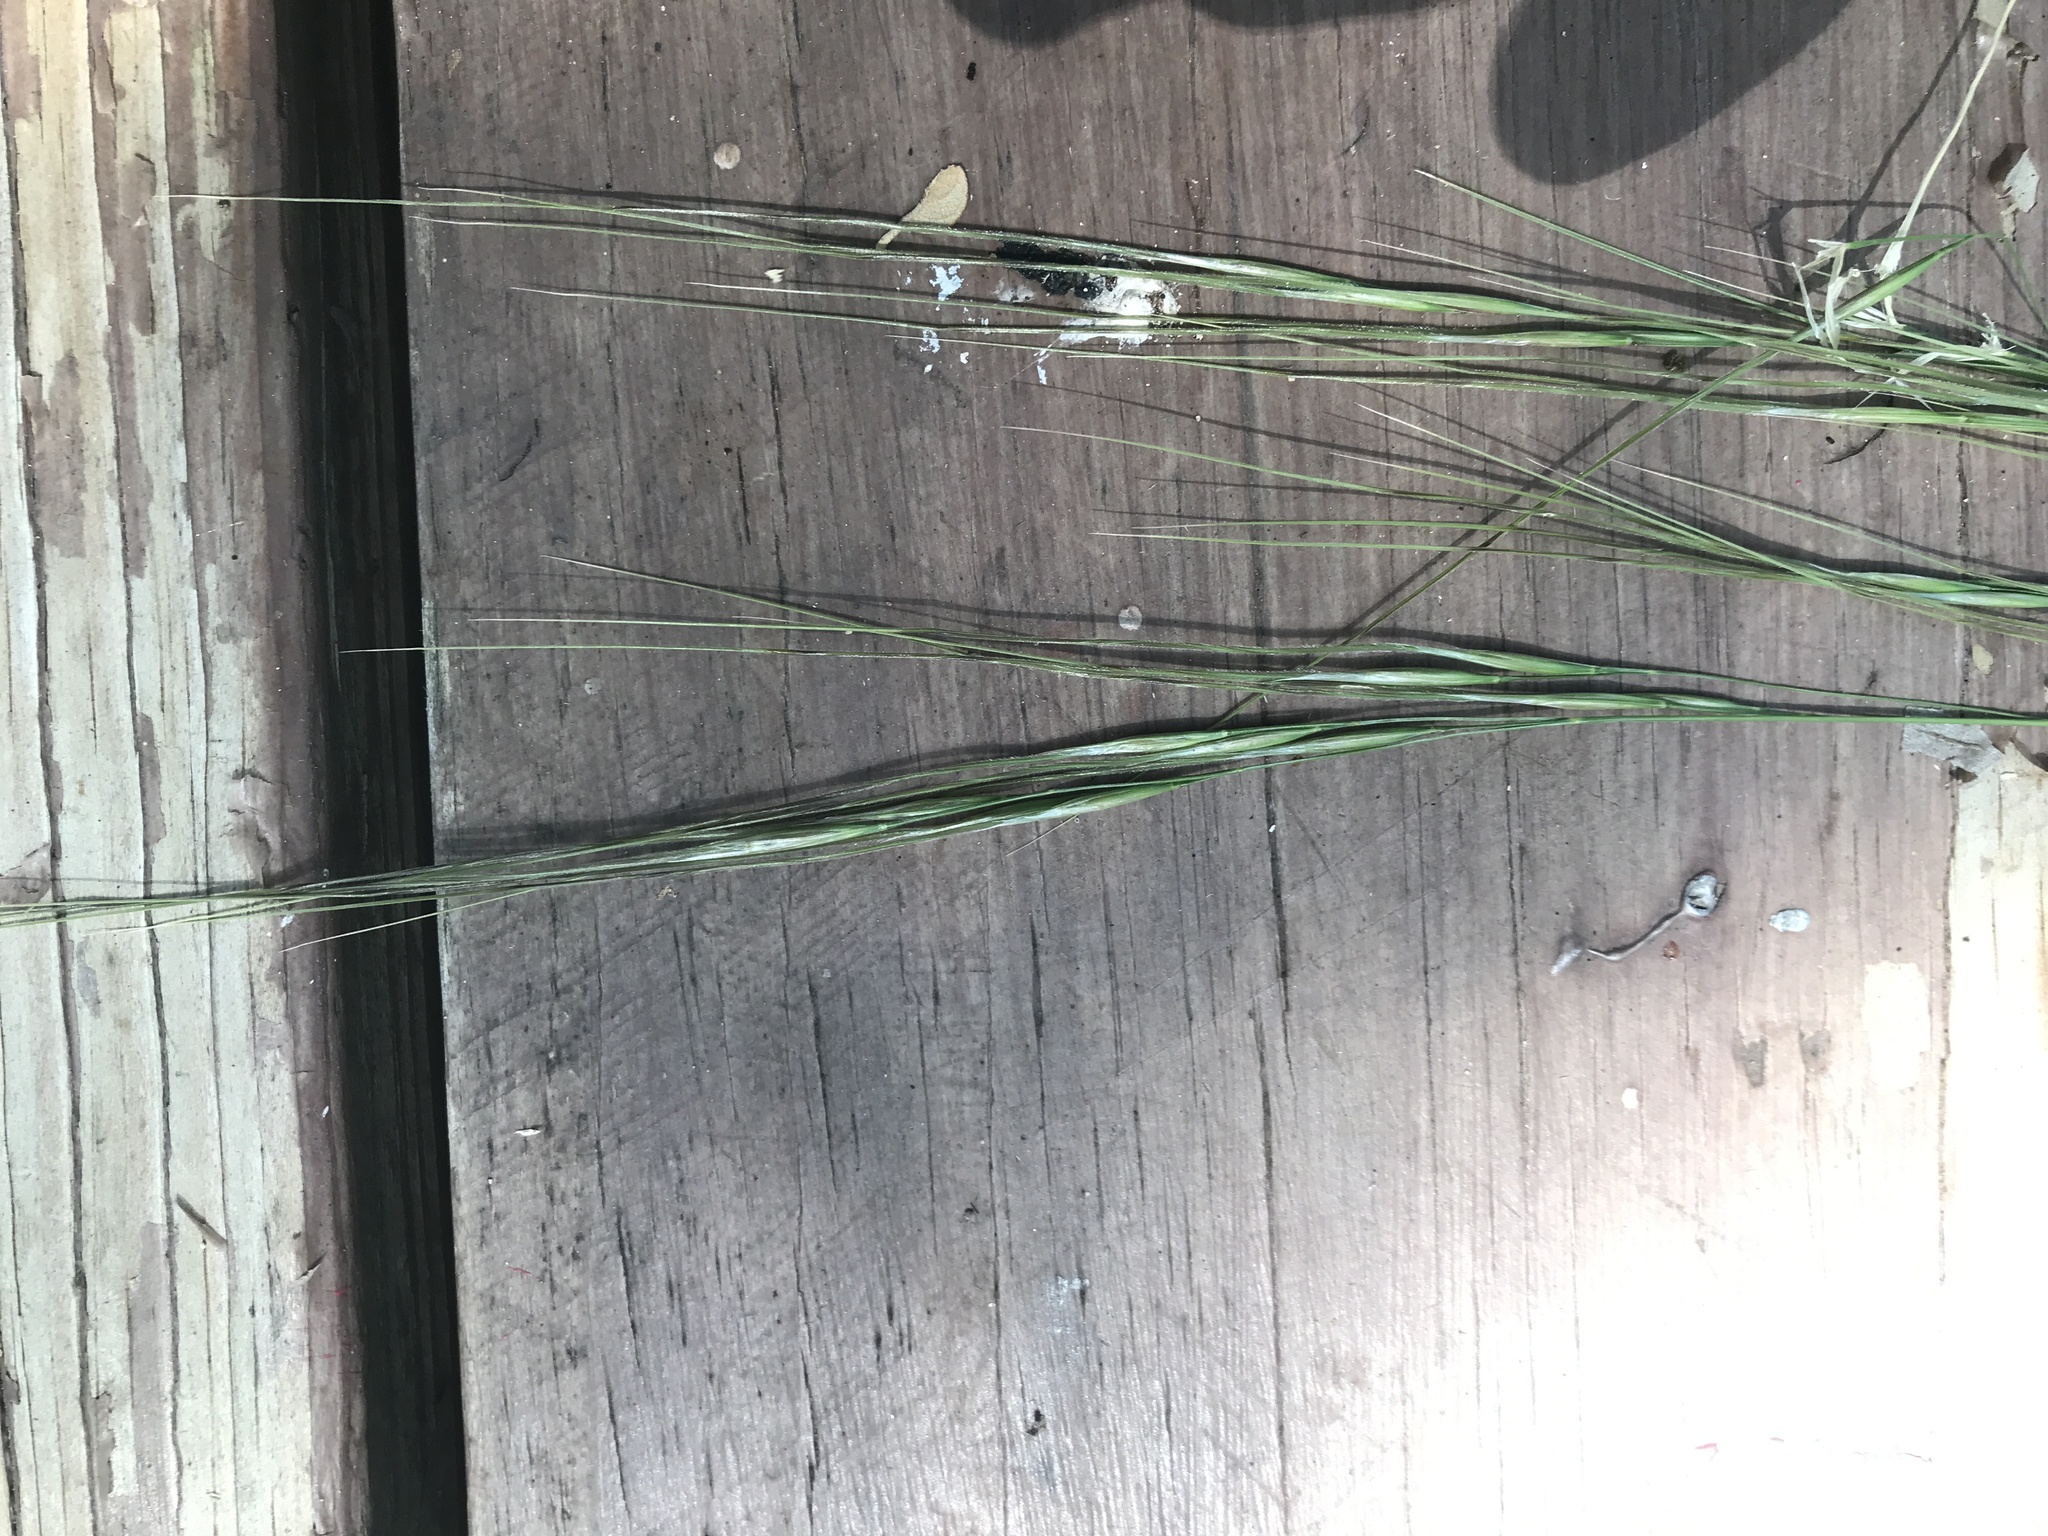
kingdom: Plantae
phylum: Tracheophyta
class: Liliopsida
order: Poales
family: Poaceae
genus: Nassella
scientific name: Nassella leucotricha
